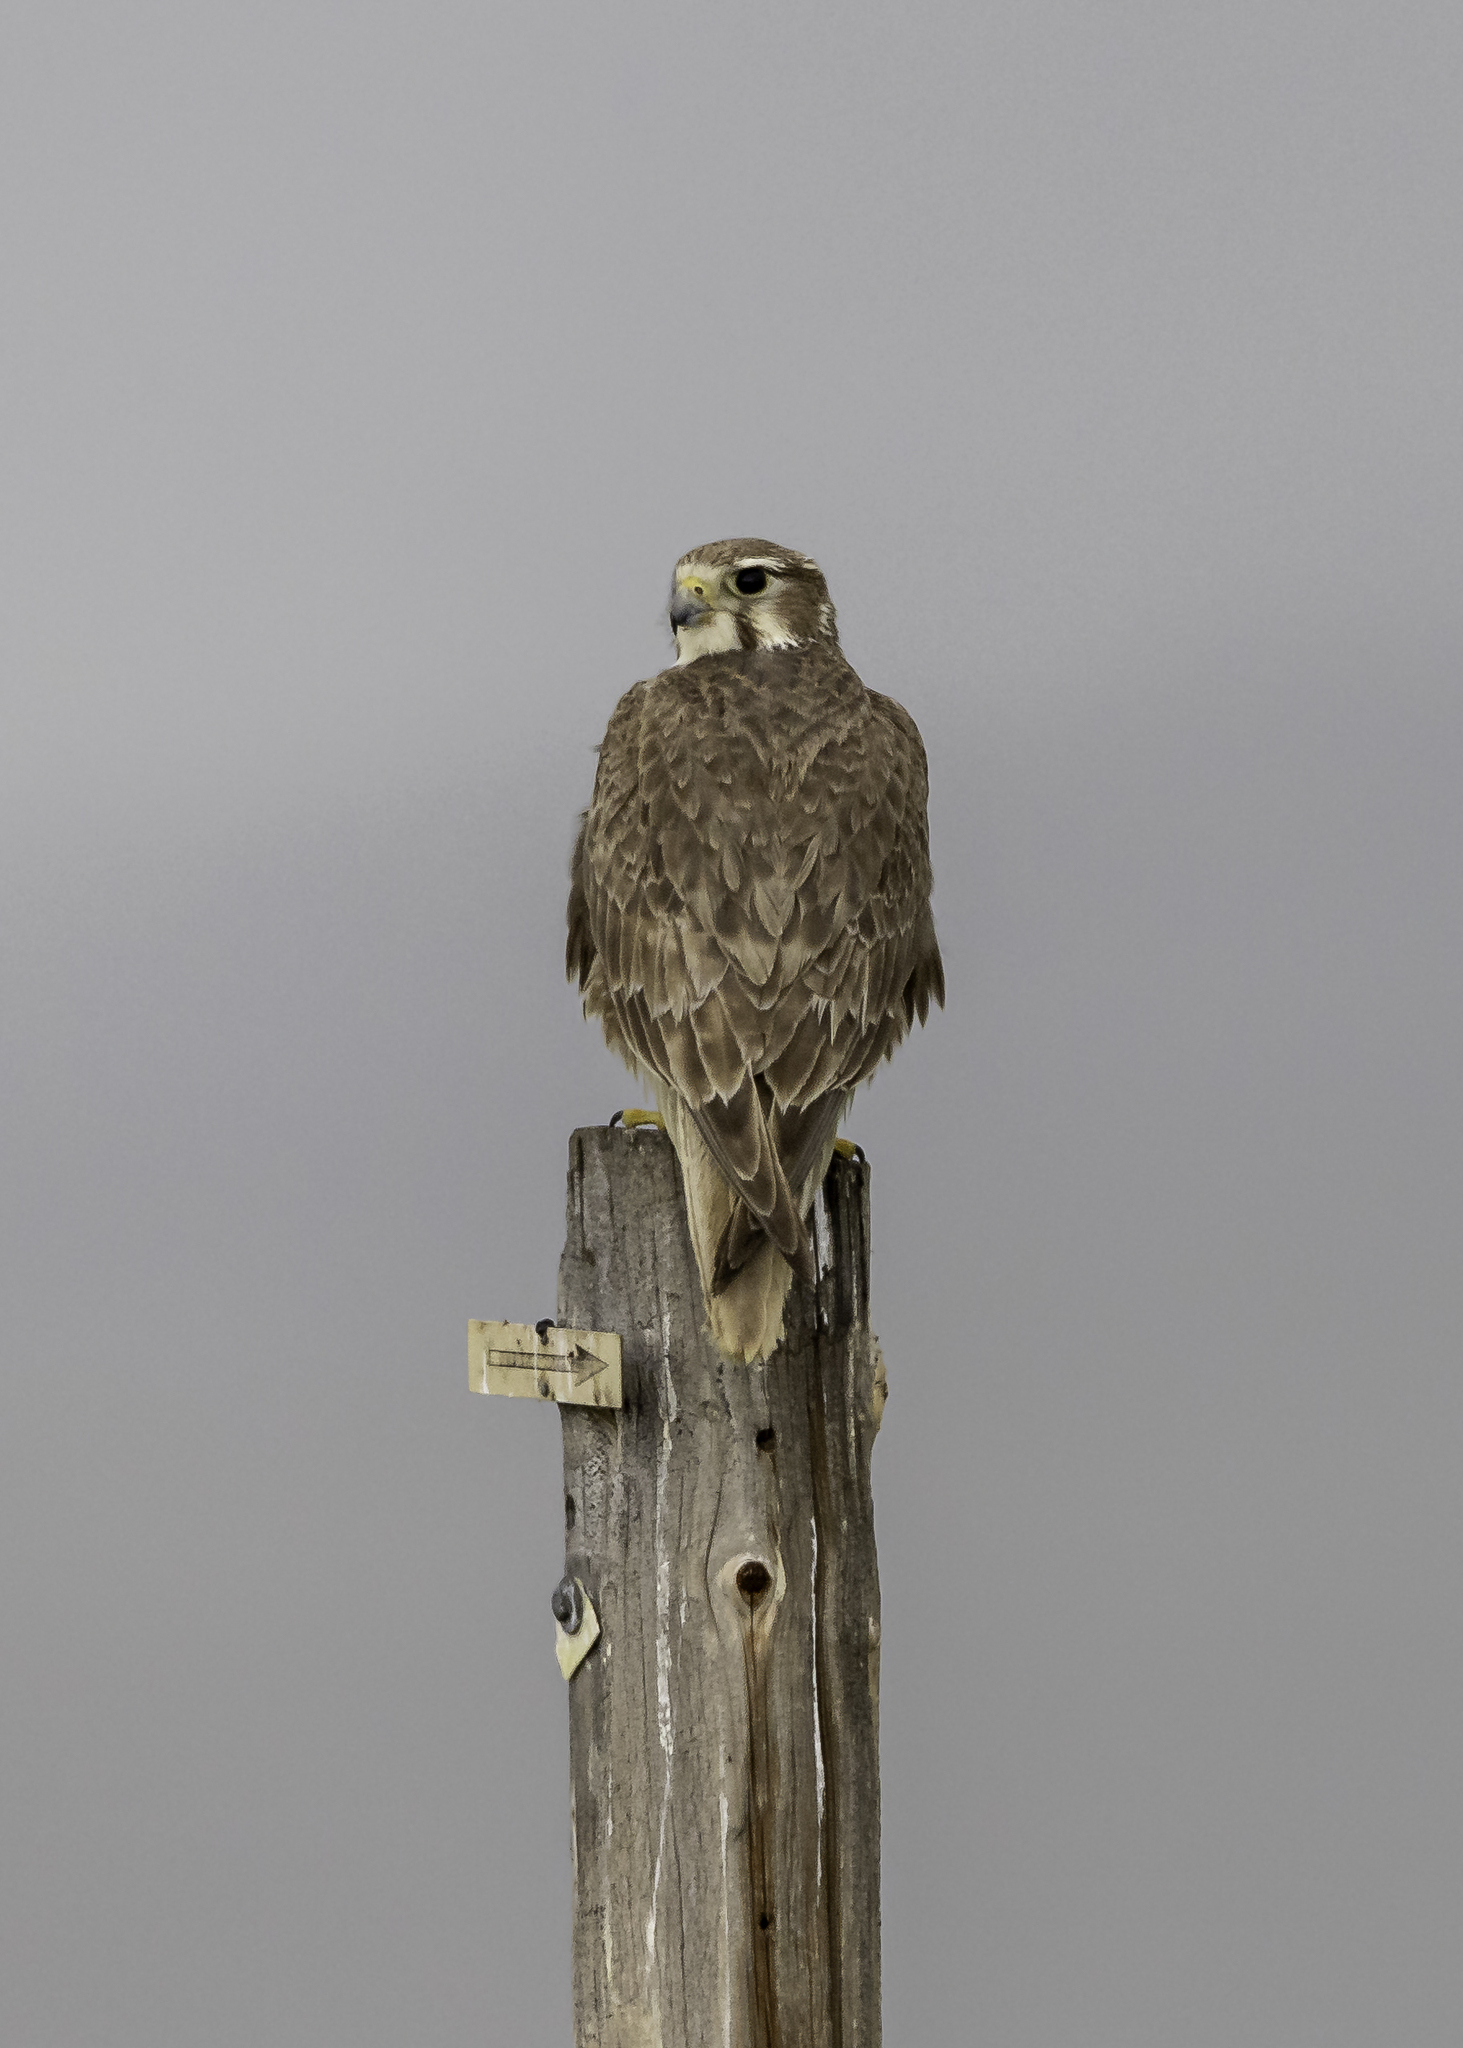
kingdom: Animalia
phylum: Chordata
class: Aves
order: Falconiformes
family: Falconidae
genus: Falco
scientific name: Falco mexicanus
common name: Prairie falcon
